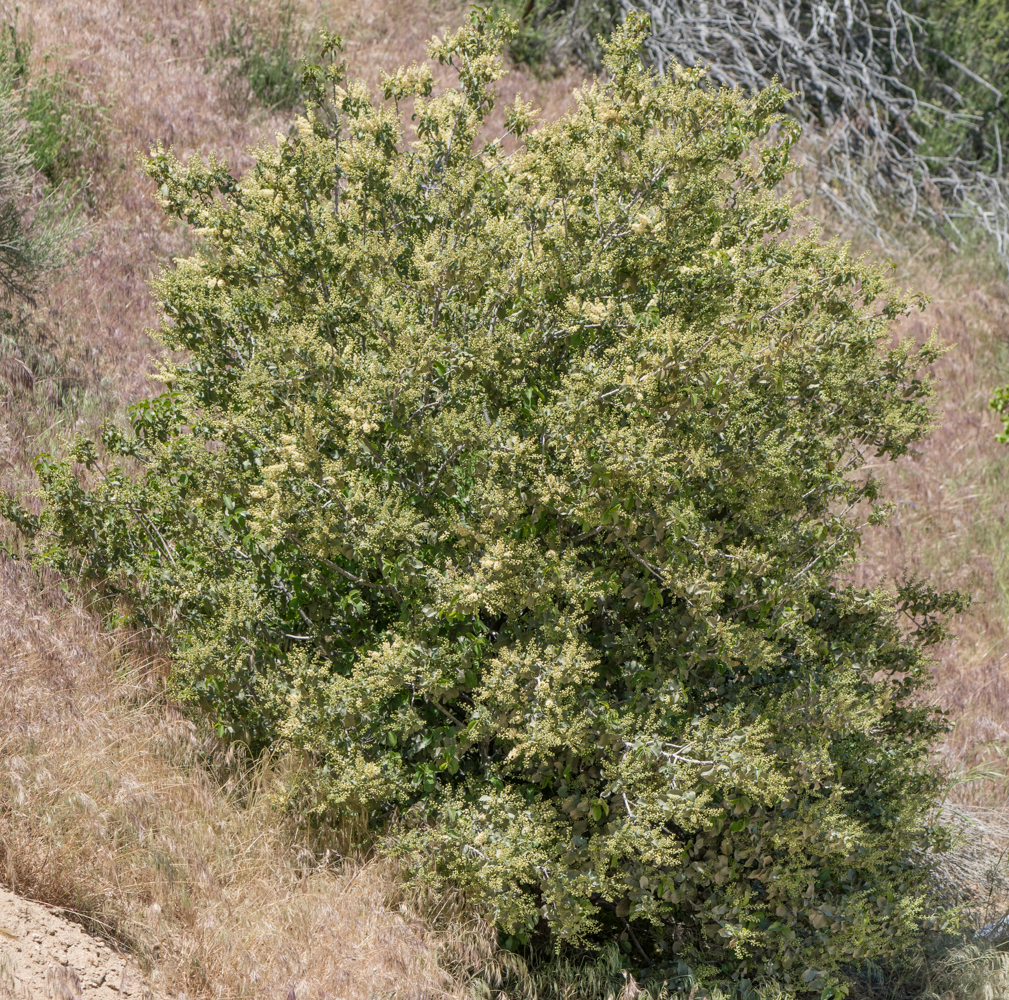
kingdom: Plantae
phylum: Tracheophyta
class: Magnoliopsida
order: Rosales
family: Rosaceae
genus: Prunus
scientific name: Prunus ilicifolia
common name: Hollyleaf cherry
